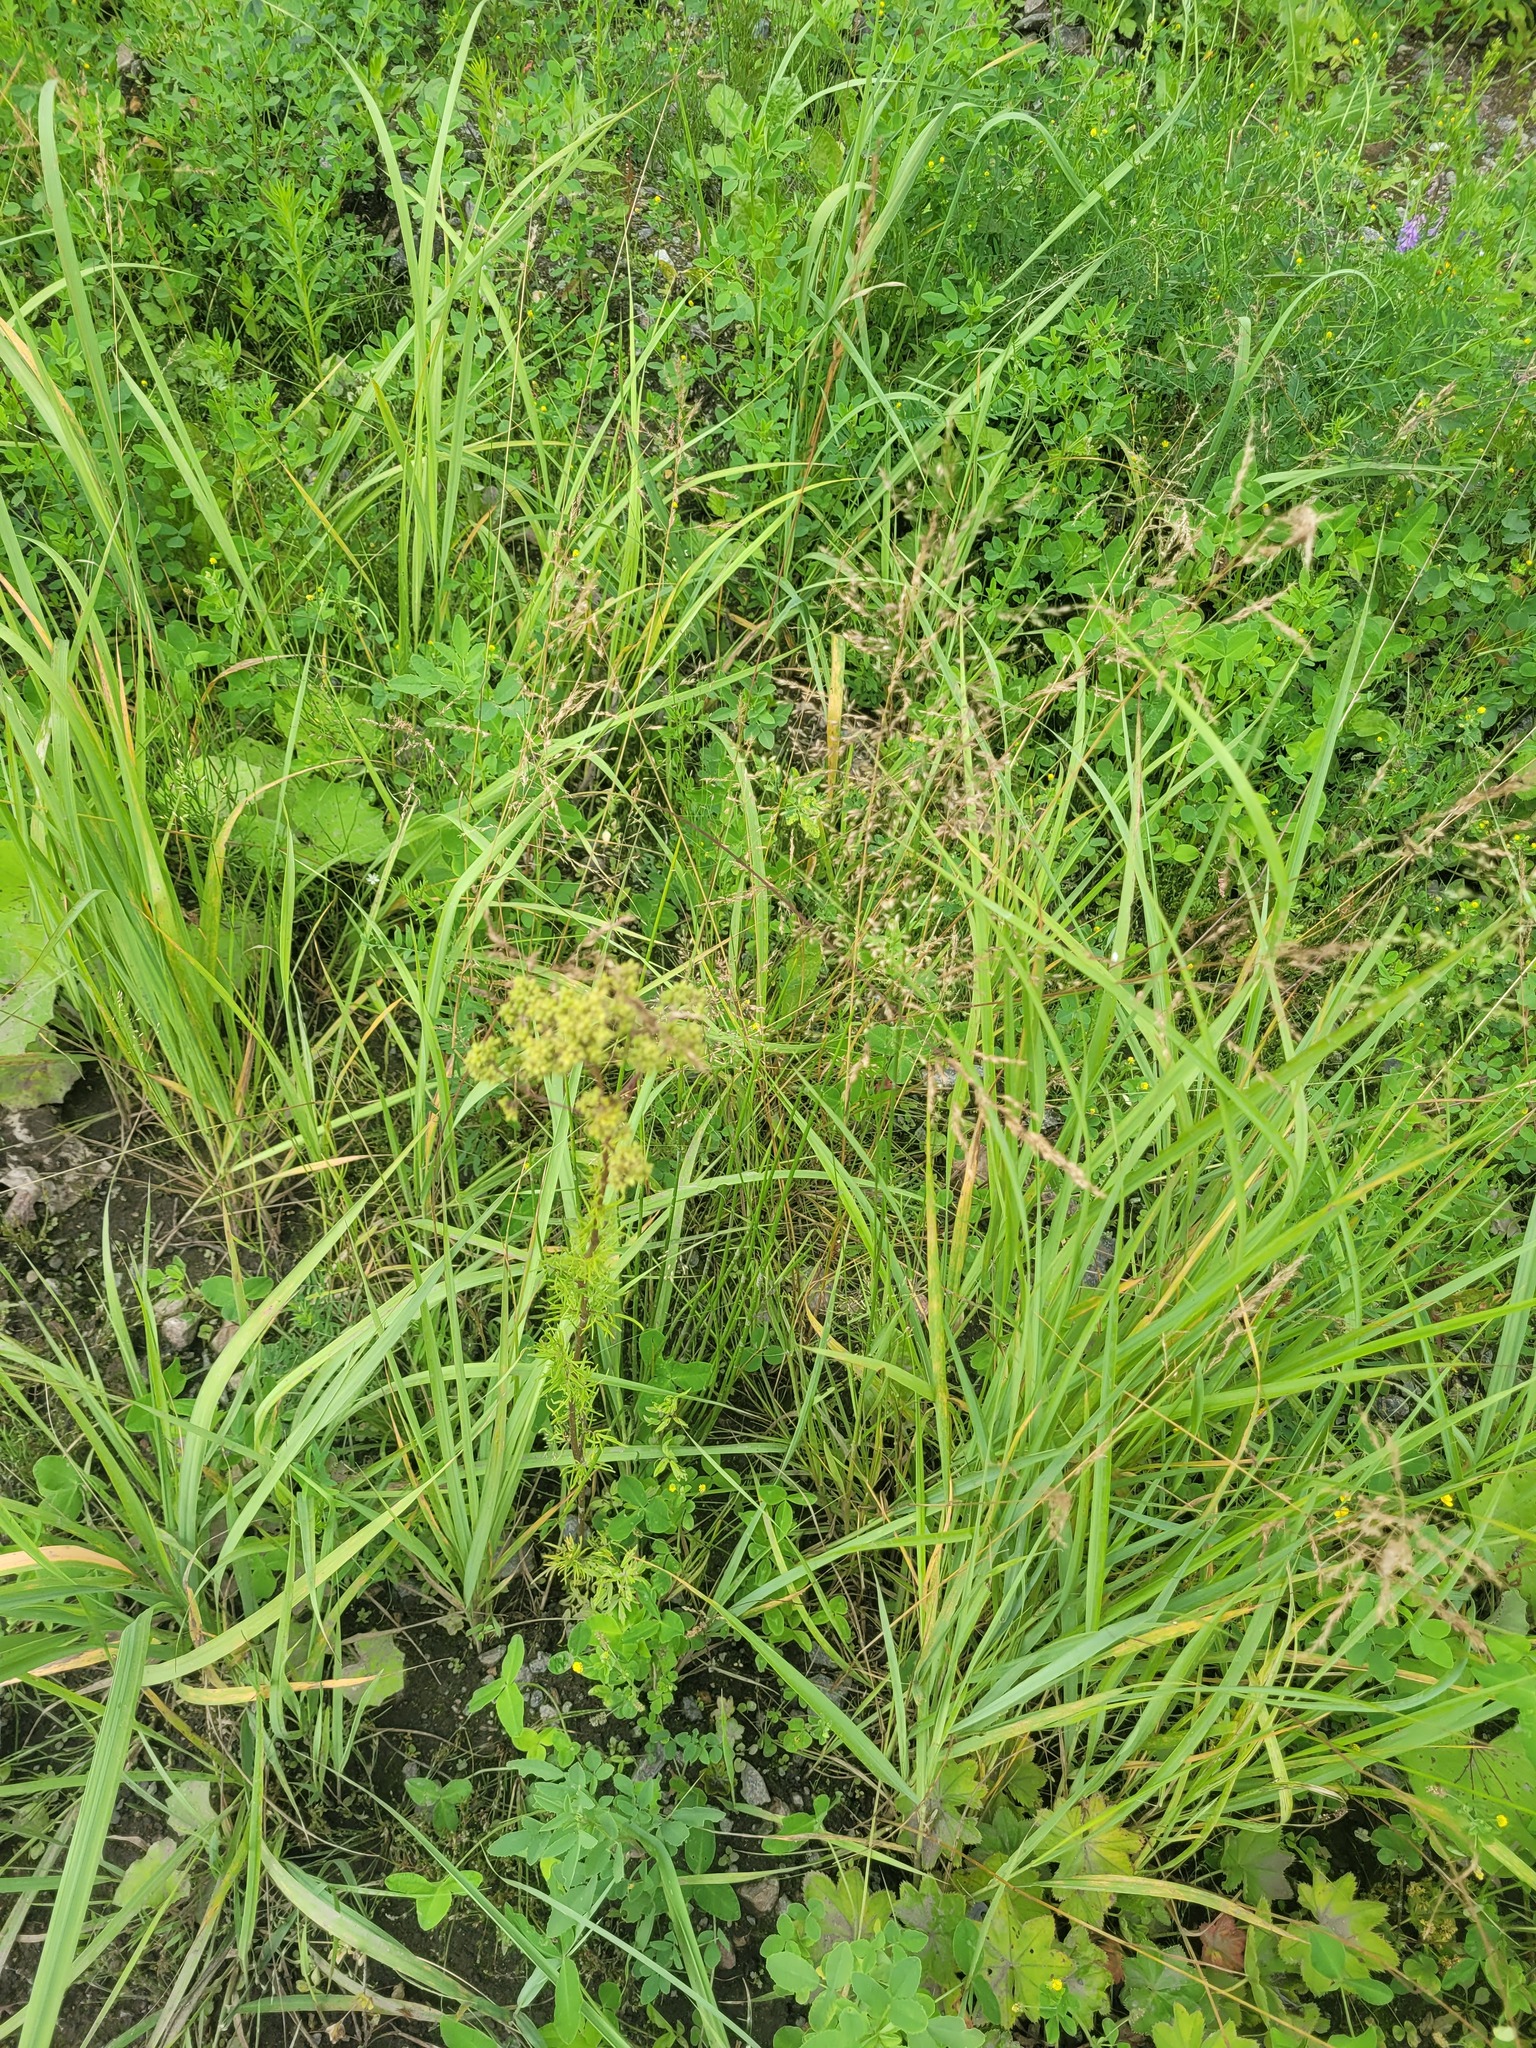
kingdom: Plantae
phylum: Tracheophyta
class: Magnoliopsida
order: Ranunculales
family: Ranunculaceae
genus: Thalictrum
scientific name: Thalictrum lucidum
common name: Shining meadow-rue
